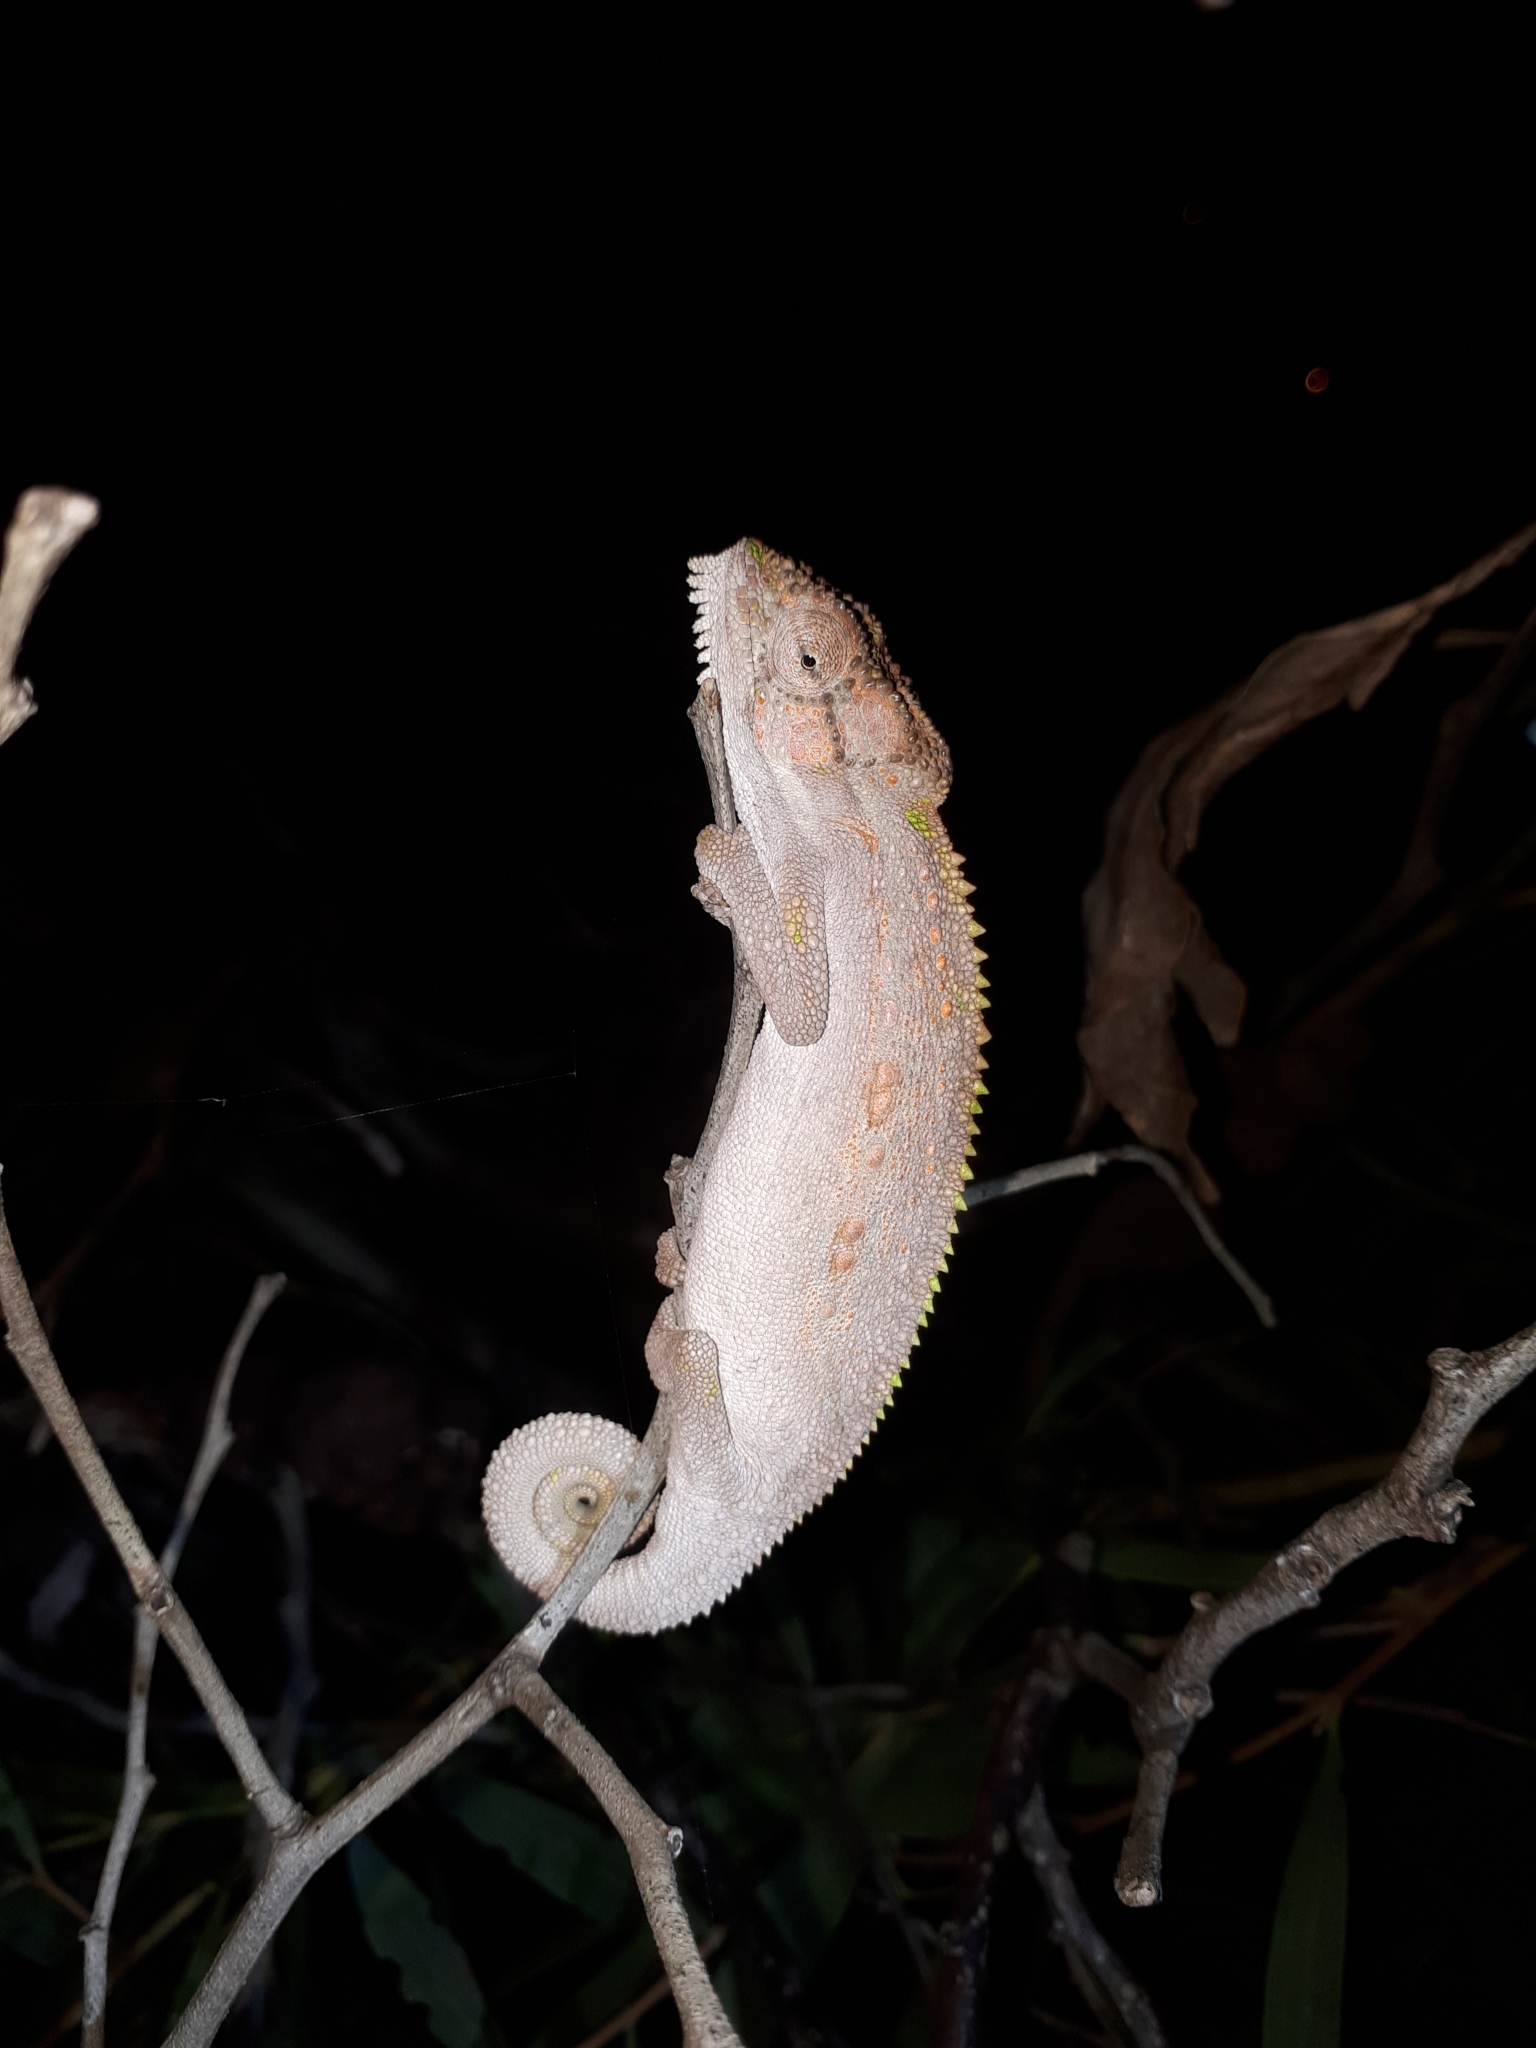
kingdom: Animalia
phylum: Chordata
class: Squamata
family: Chamaeleonidae
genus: Bradypodion
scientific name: Bradypodion pumilum
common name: Cape dwarf chameleon
